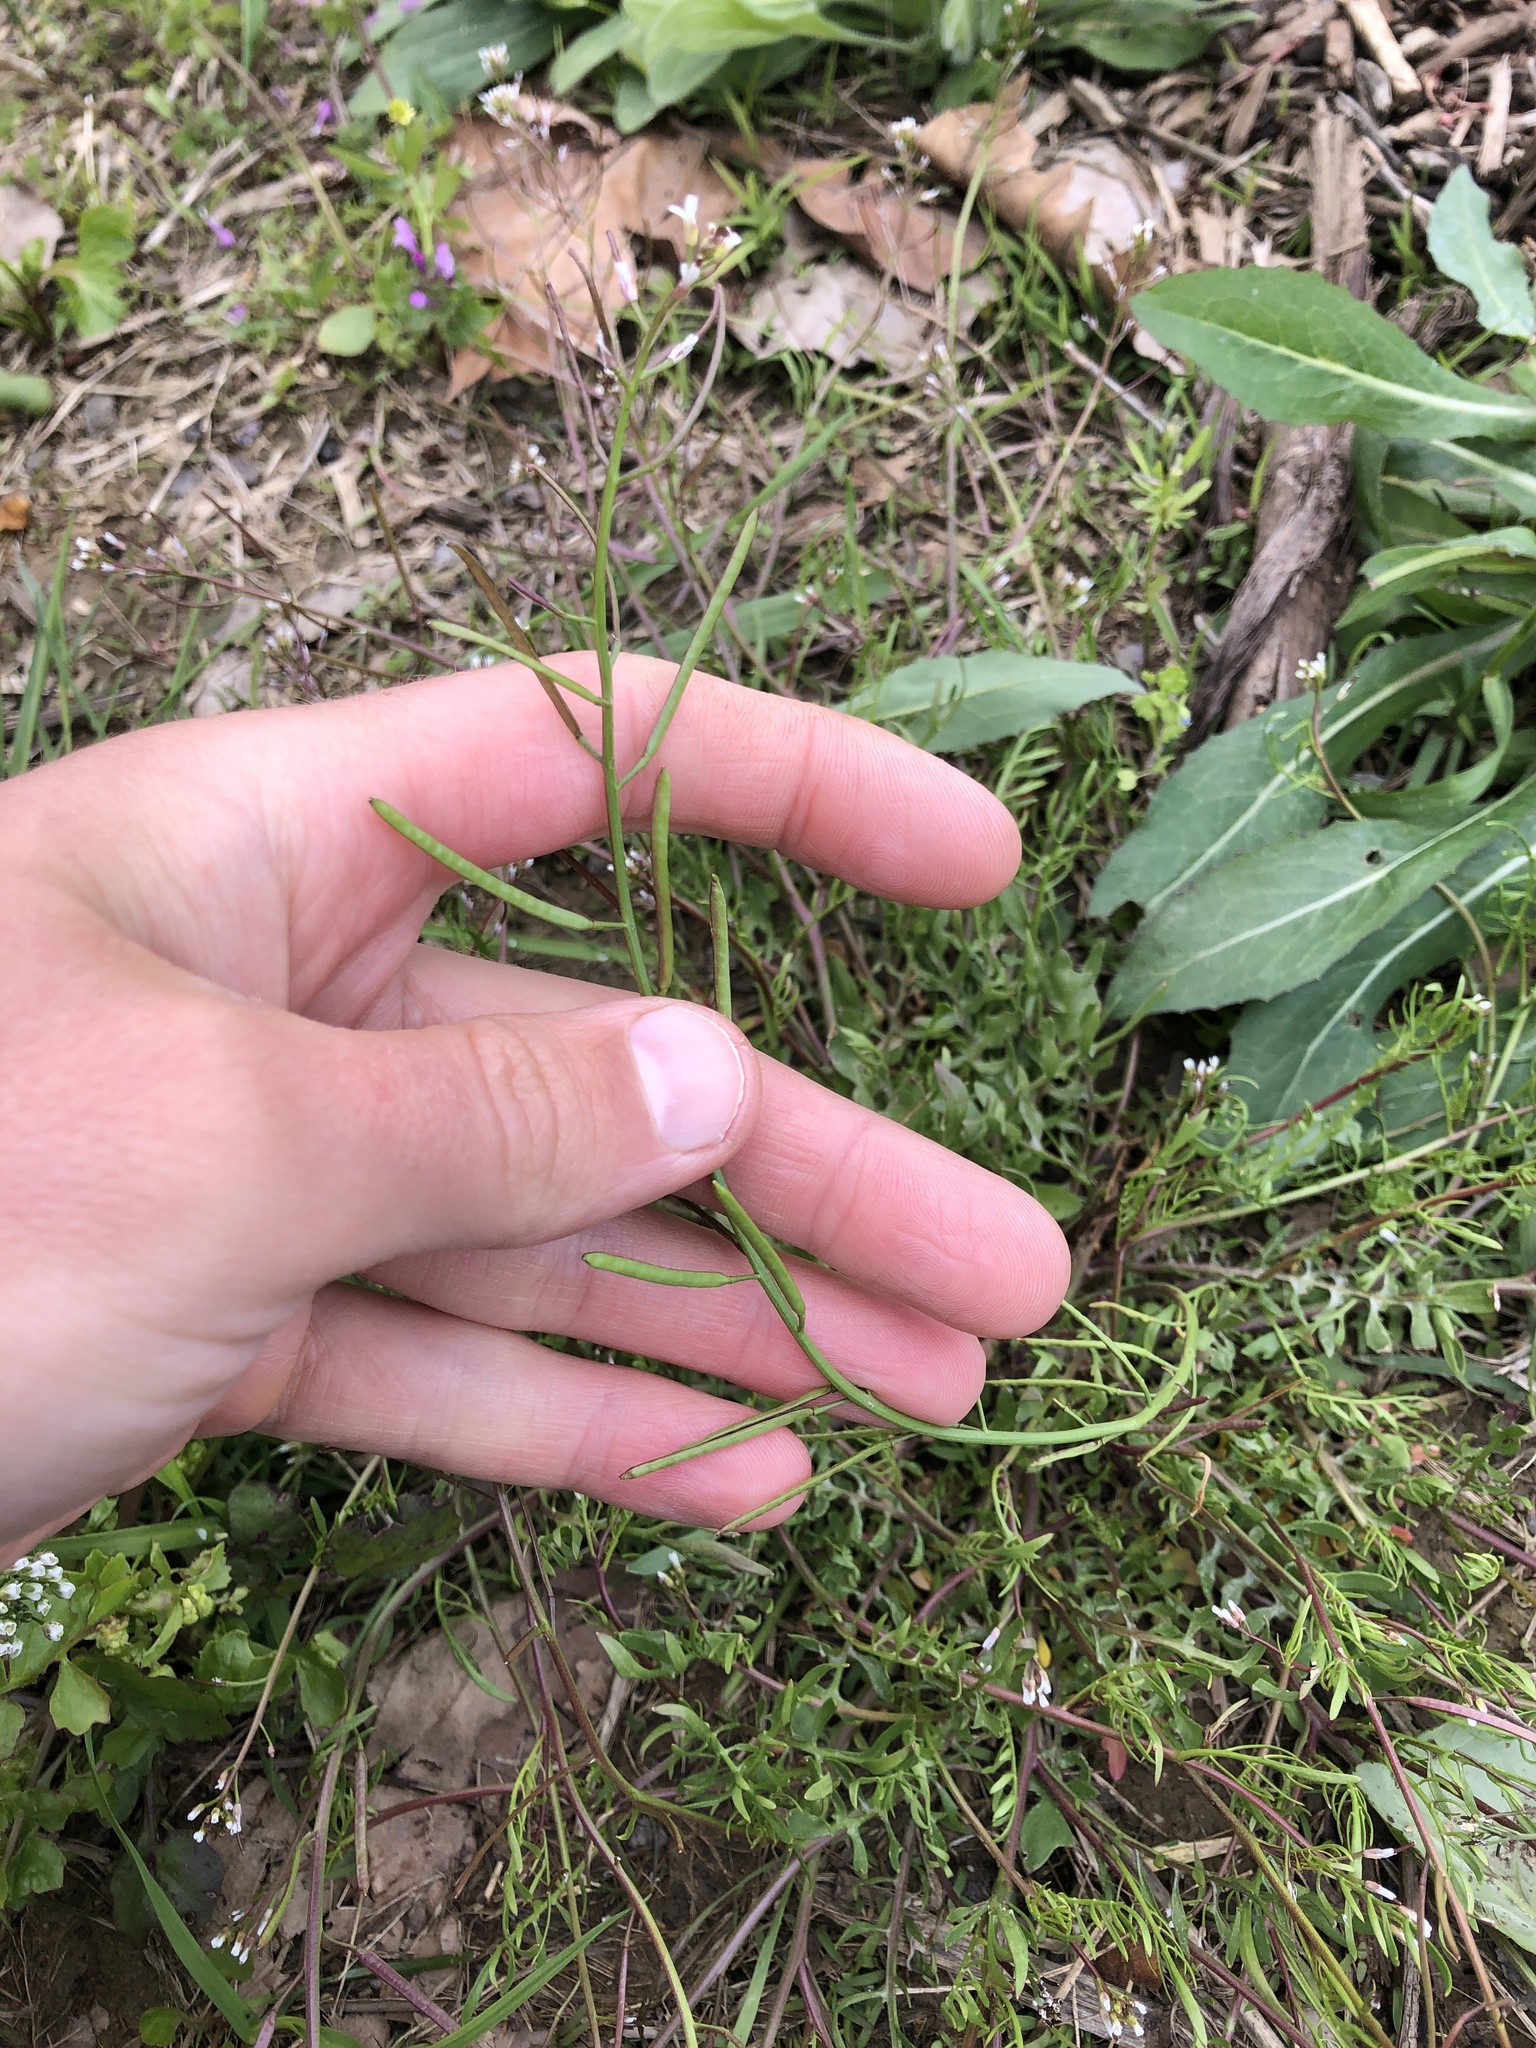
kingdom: Plantae
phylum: Tracheophyta
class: Magnoliopsida
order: Brassicales
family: Brassicaceae
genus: Planodes
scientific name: Planodes virginicum
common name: Virginia cress
